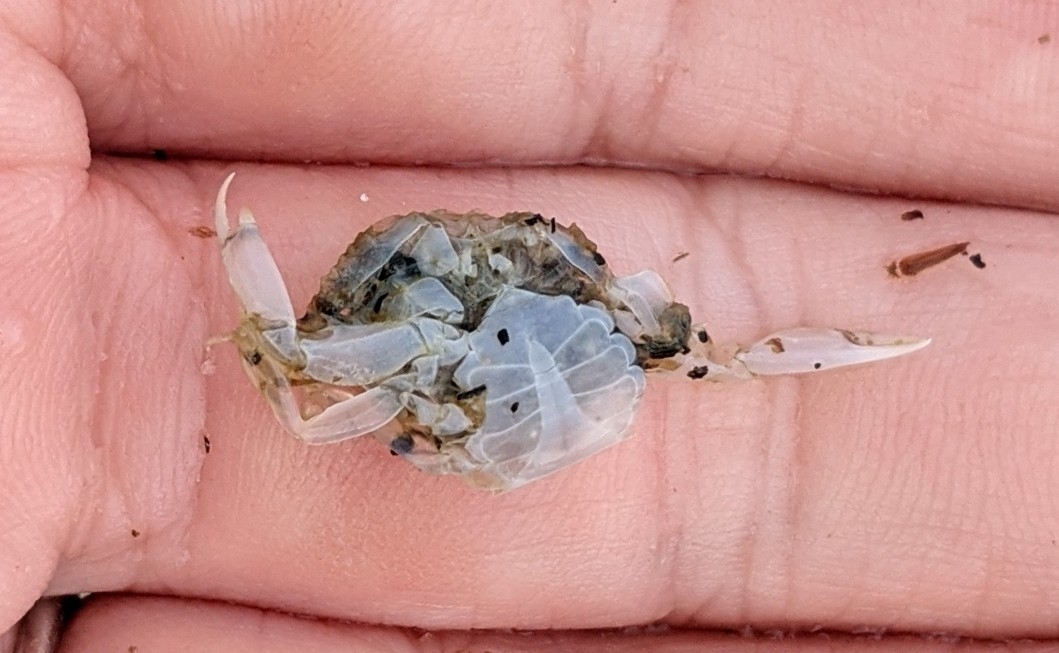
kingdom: Animalia
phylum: Arthropoda
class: Malacostraca
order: Decapoda
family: Portunidae
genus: Callinectes
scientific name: Callinectes sapidus
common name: Blue crab
